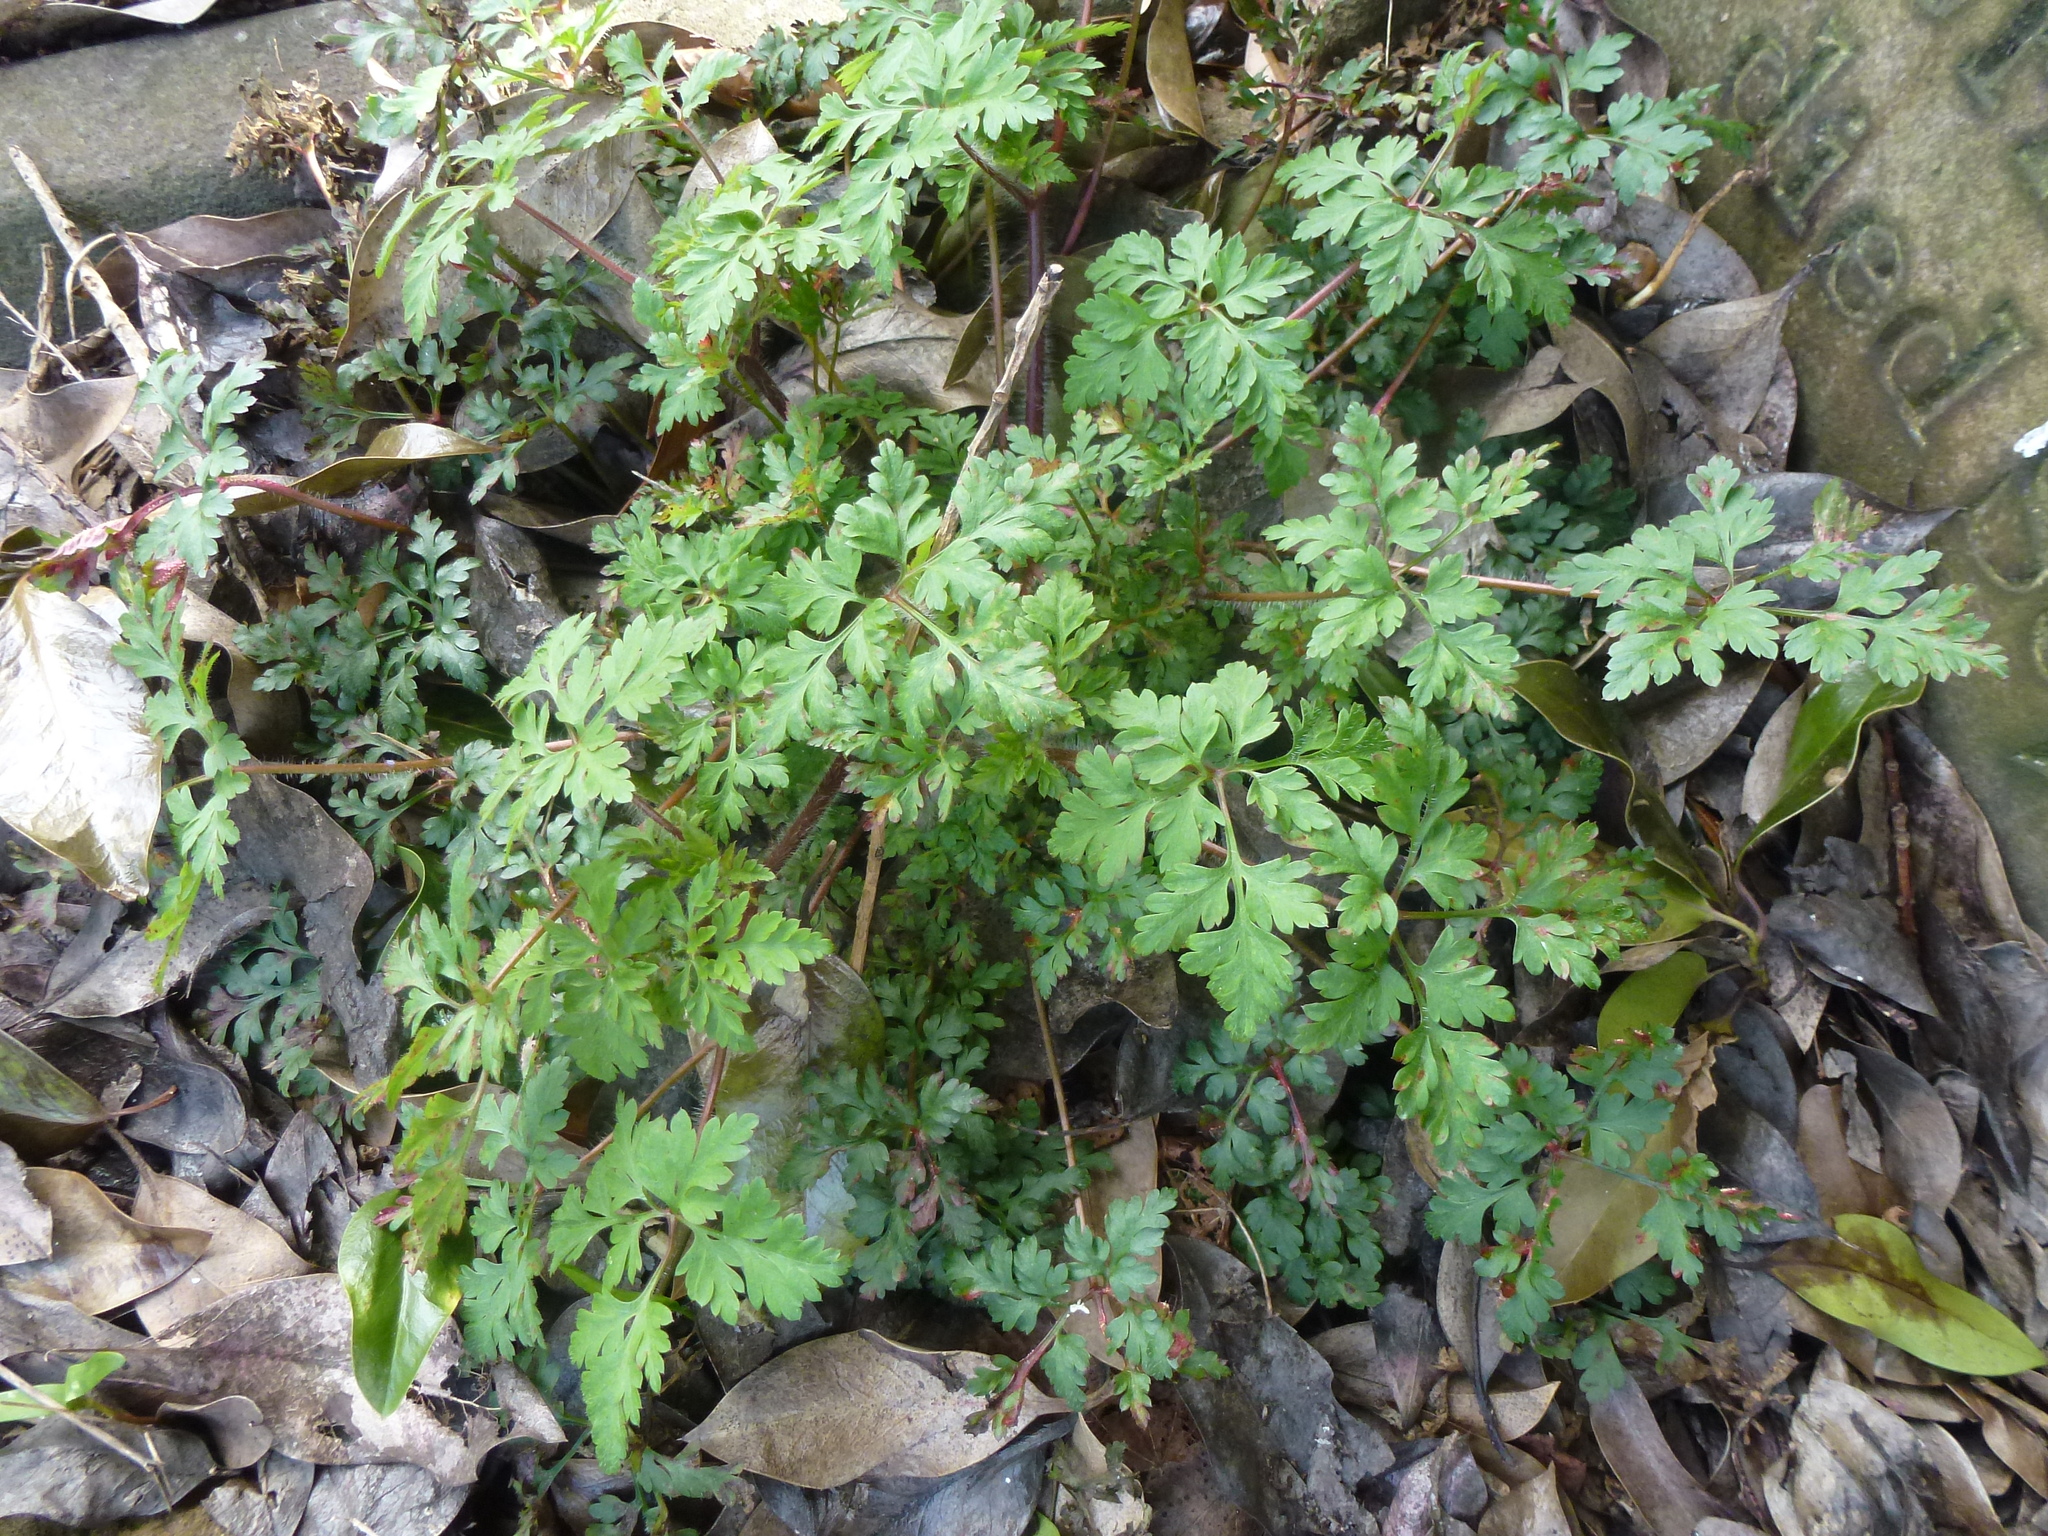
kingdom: Plantae
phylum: Tracheophyta
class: Magnoliopsida
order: Geraniales
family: Geraniaceae
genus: Geranium
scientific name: Geranium robertianum
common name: Herb-robert
